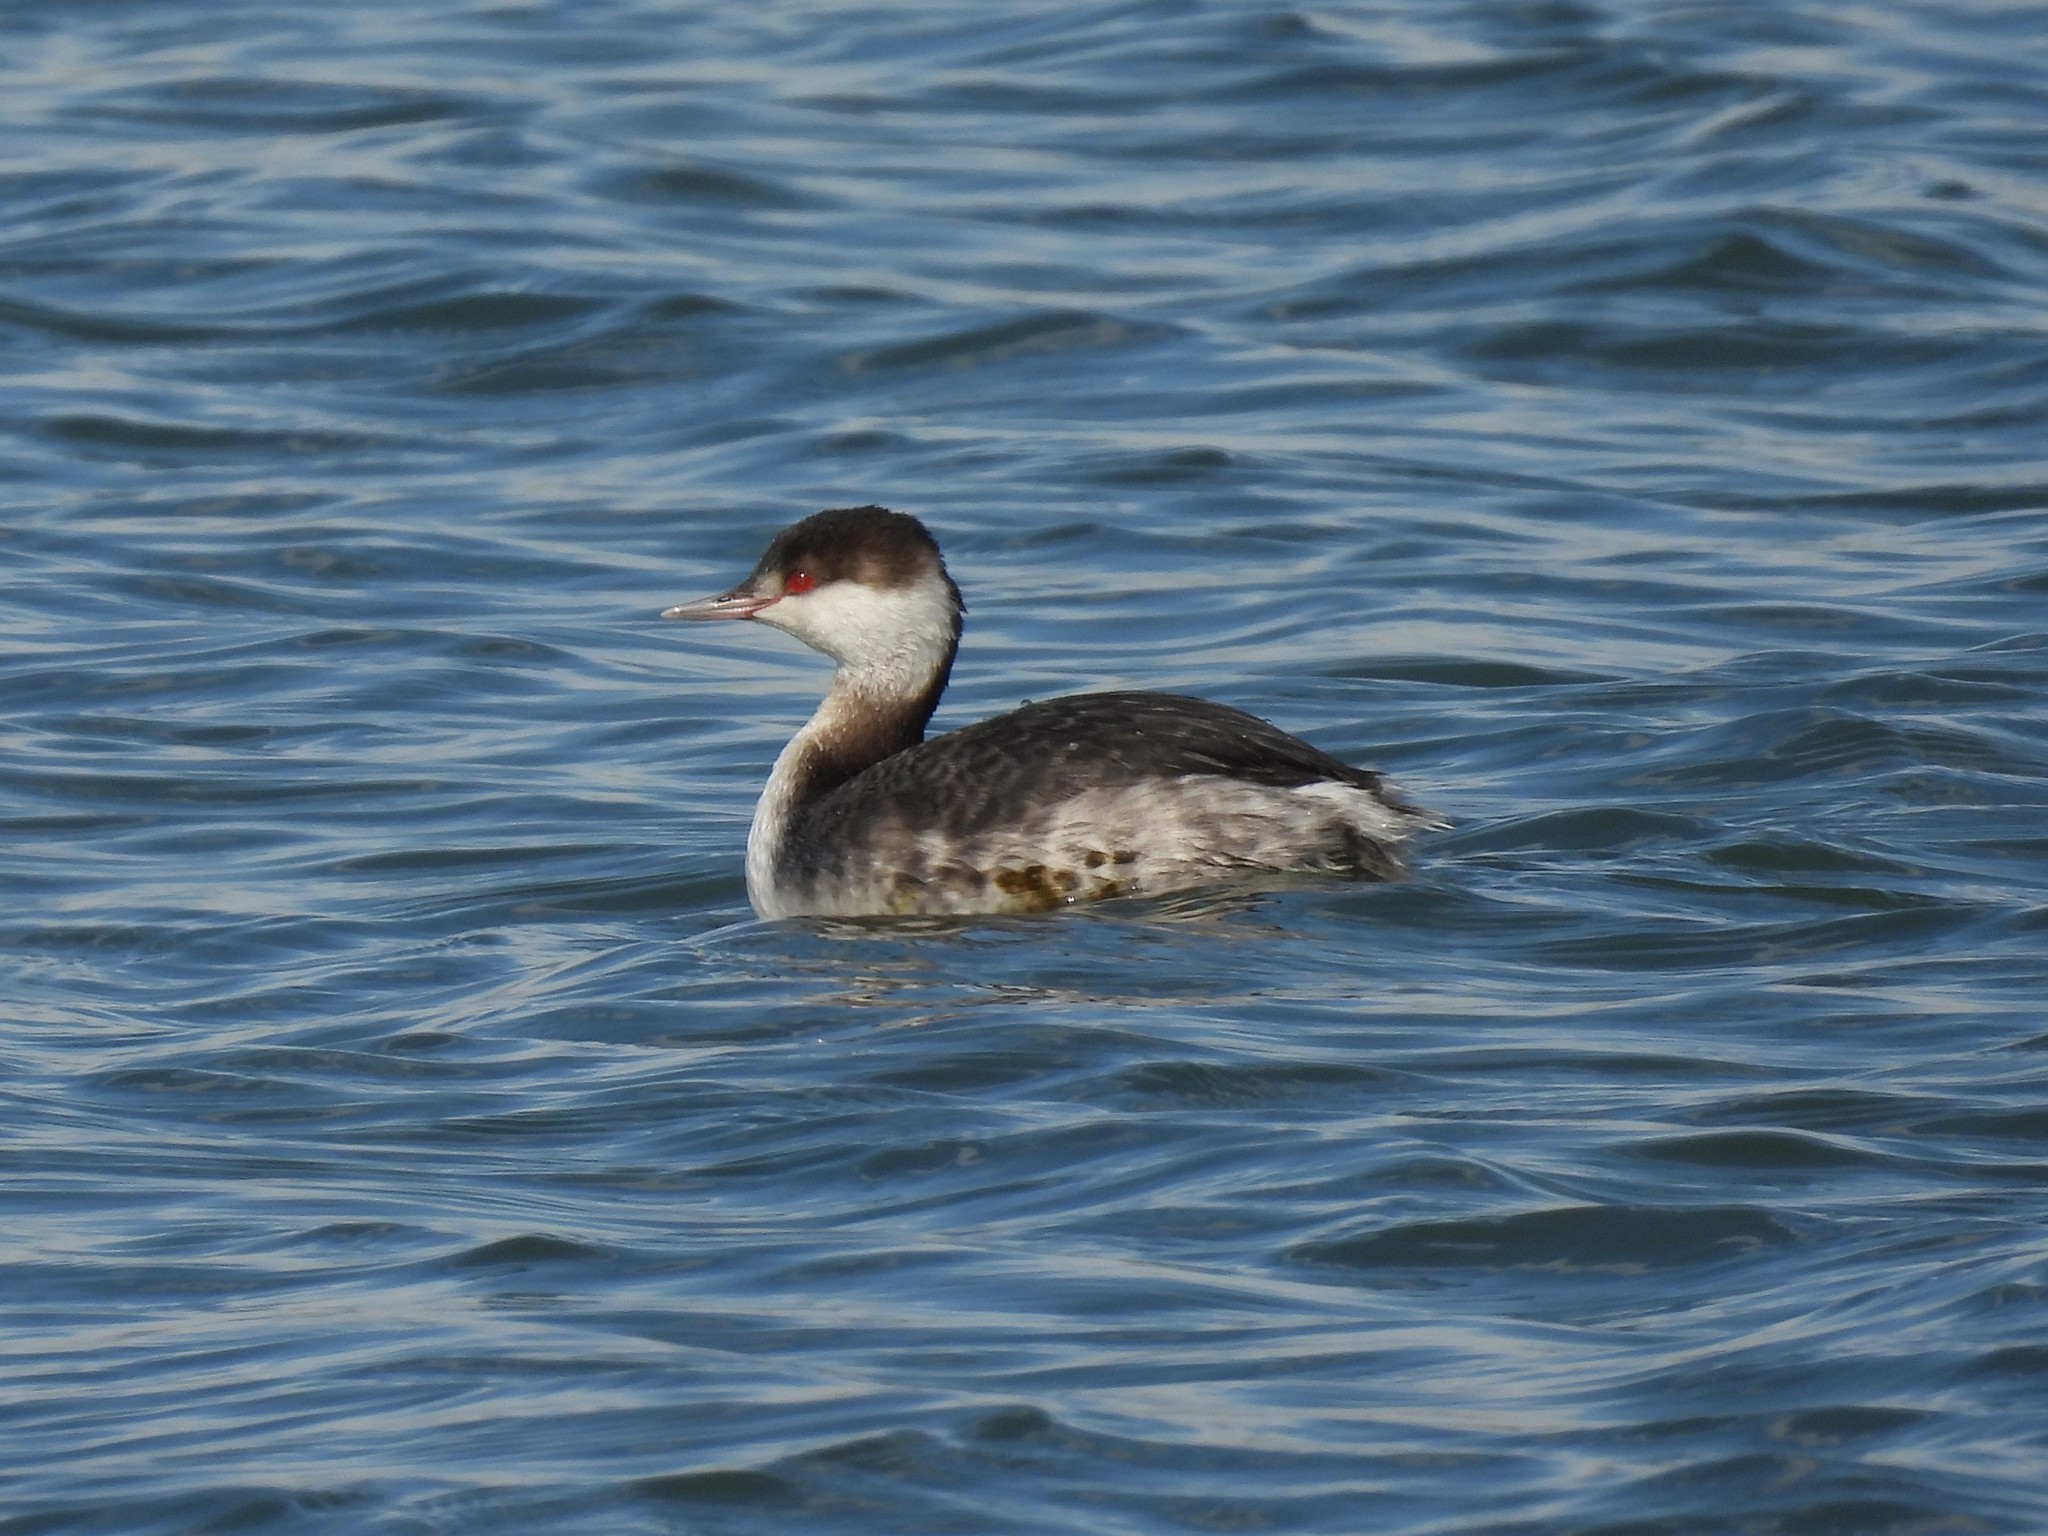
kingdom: Animalia
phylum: Chordata
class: Aves
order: Podicipediformes
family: Podicipedidae
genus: Podiceps
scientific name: Podiceps auritus
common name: Horned grebe
